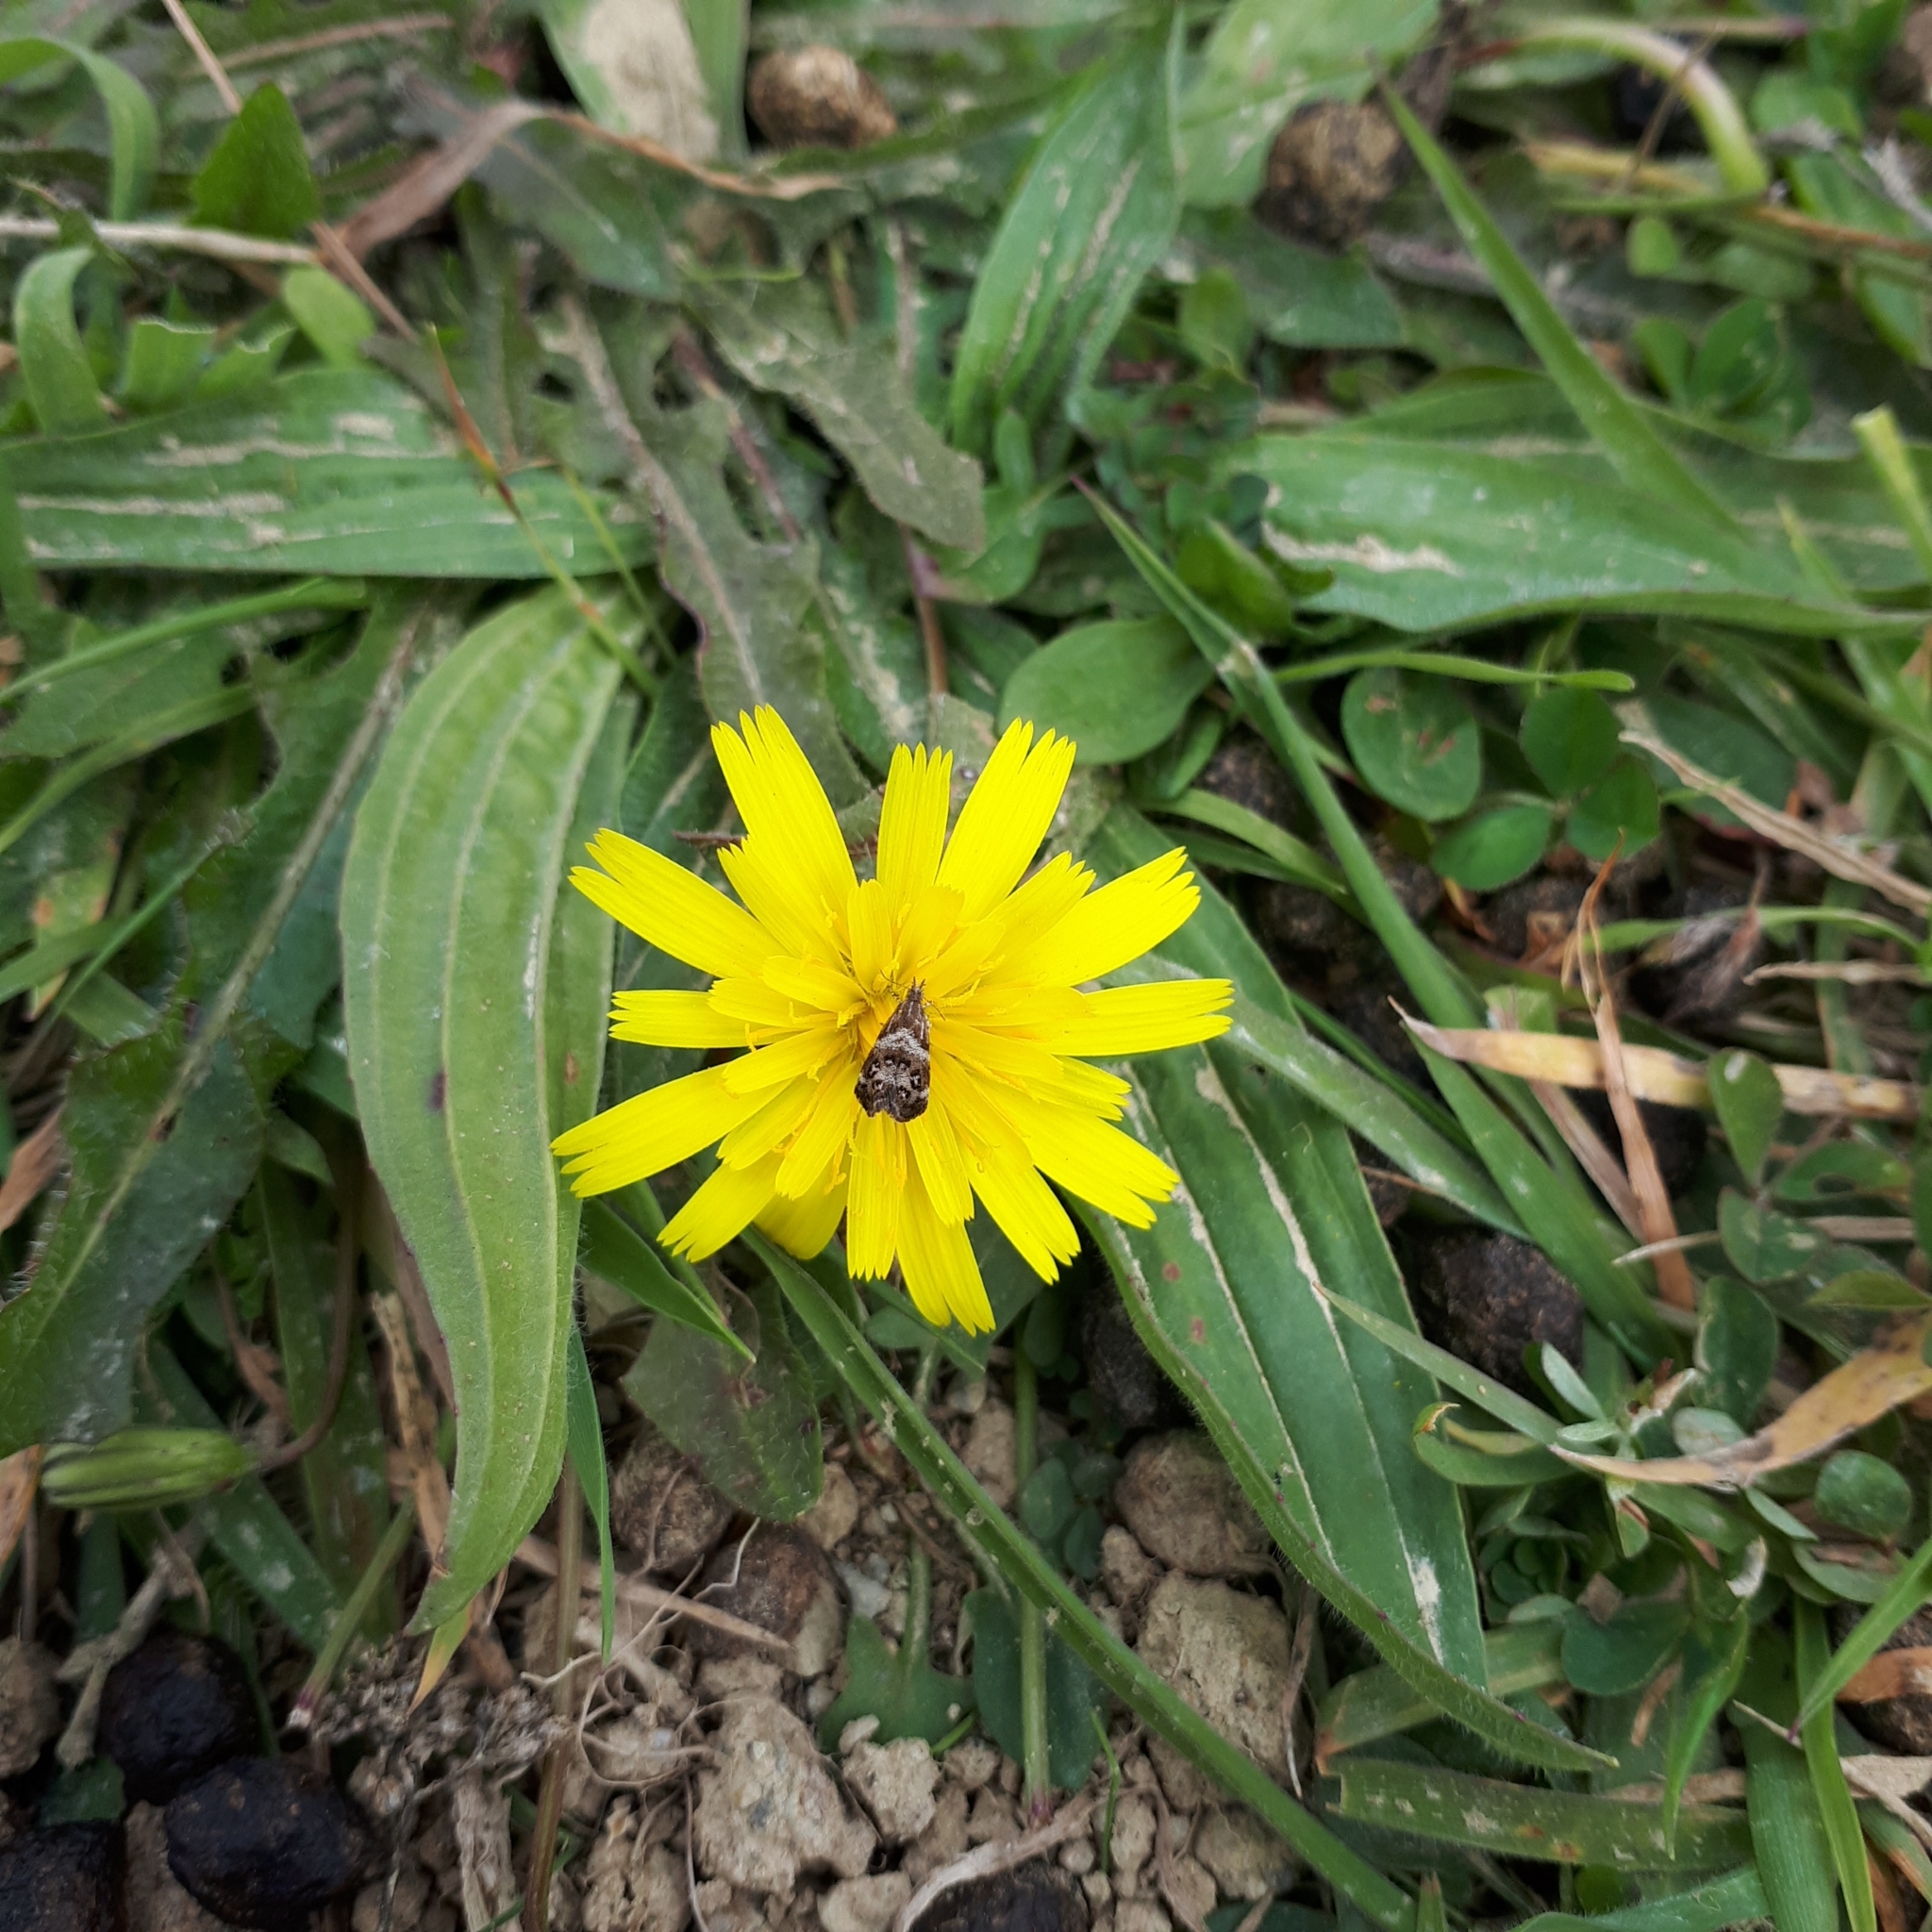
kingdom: Animalia
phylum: Arthropoda
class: Insecta
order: Lepidoptera
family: Choreutidae
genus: Tebenna
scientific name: Tebenna micalis
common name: Vagrant twitcher
